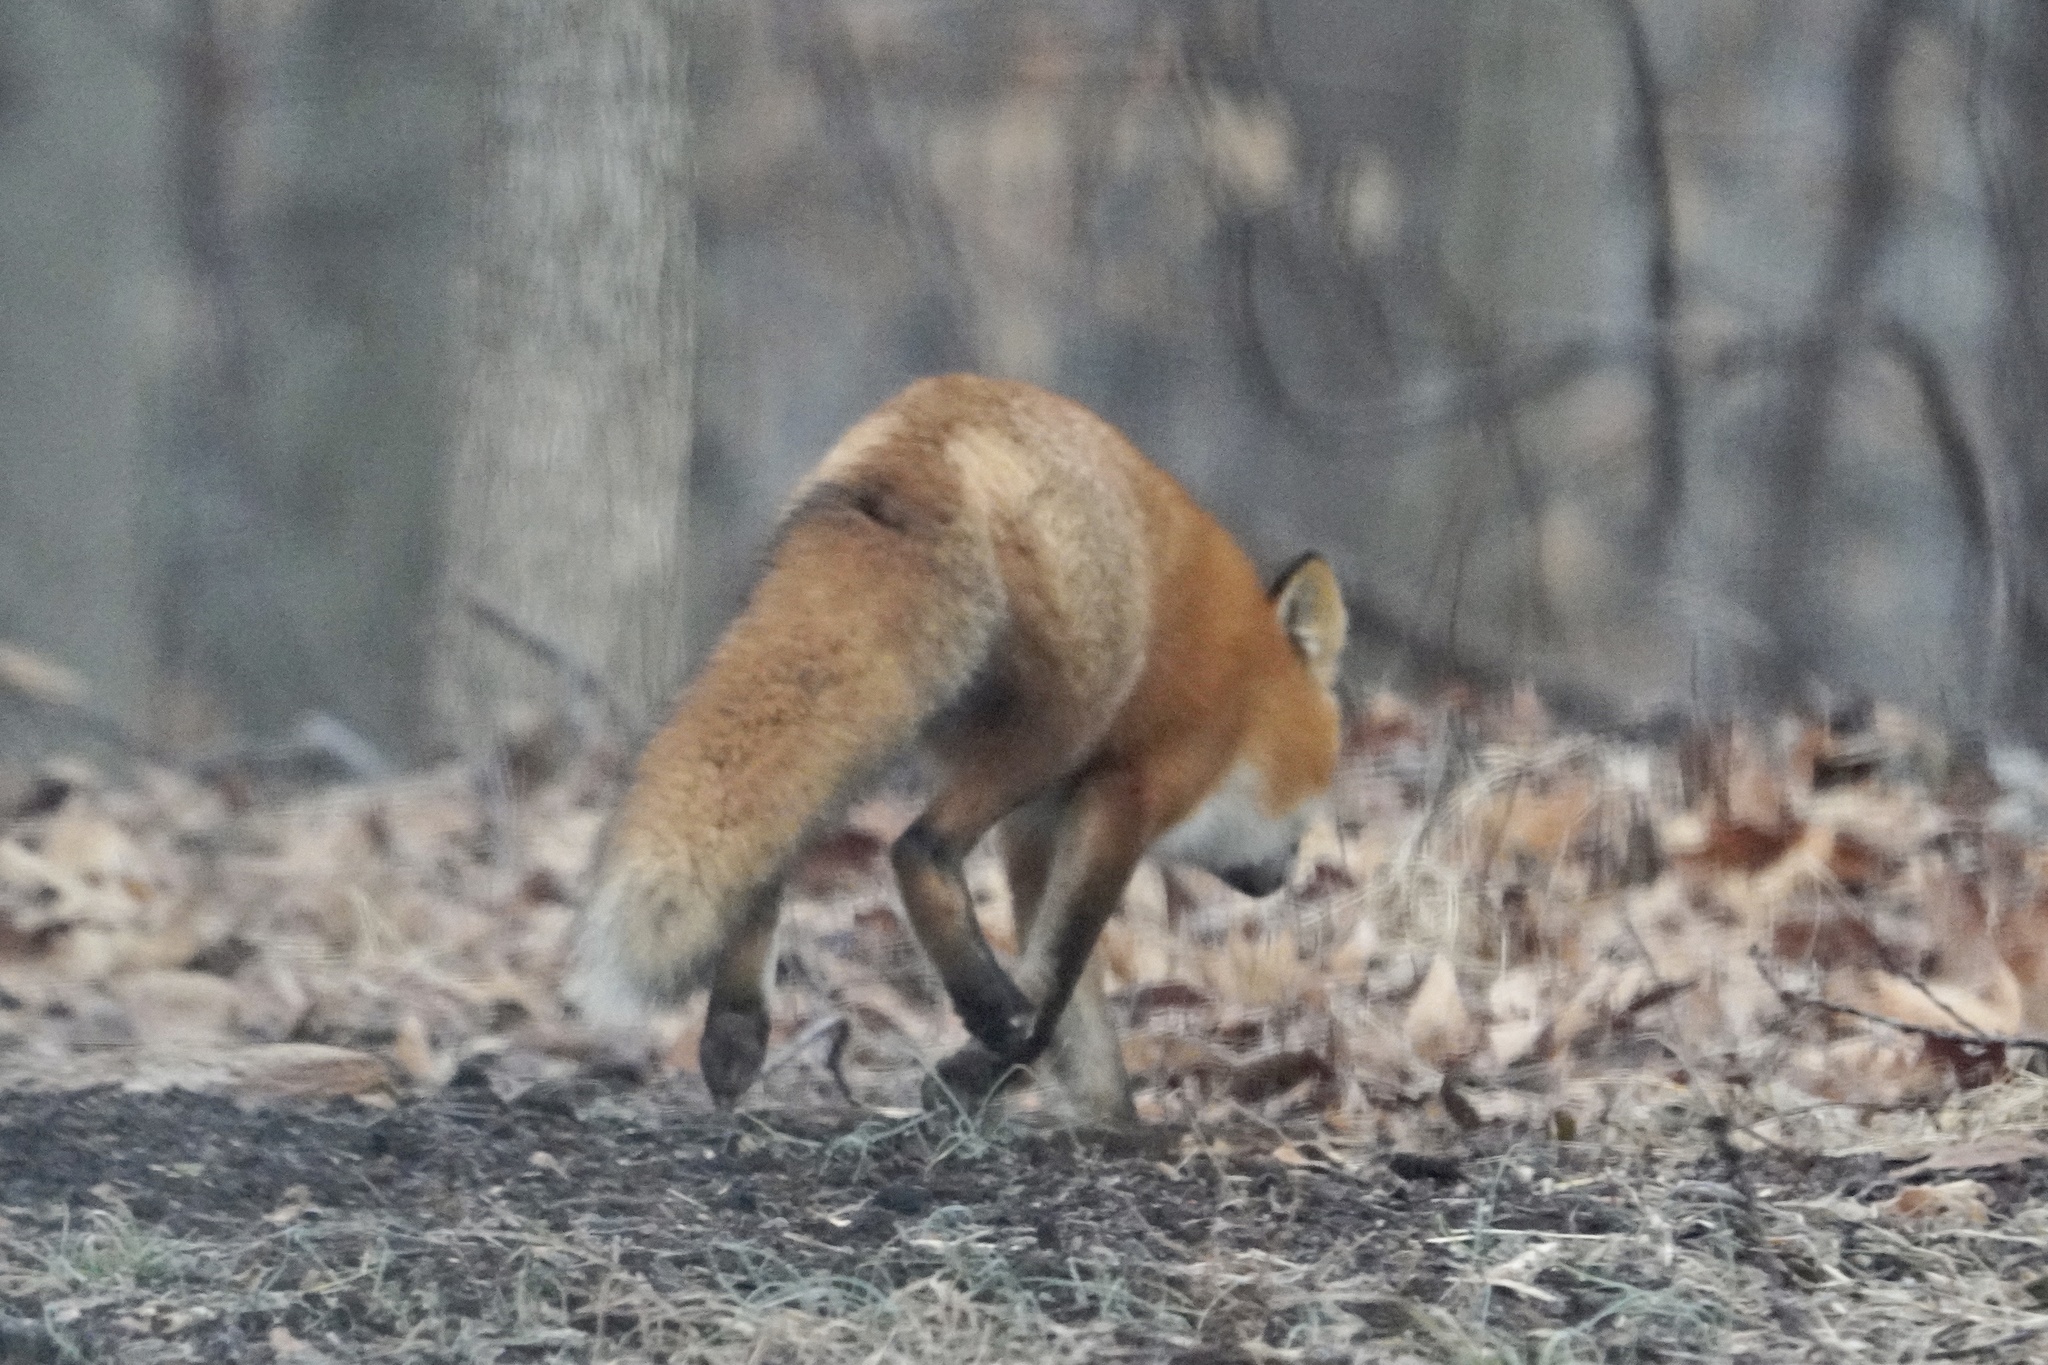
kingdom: Animalia
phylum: Chordata
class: Mammalia
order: Carnivora
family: Canidae
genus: Vulpes
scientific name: Vulpes vulpes
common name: Red fox
